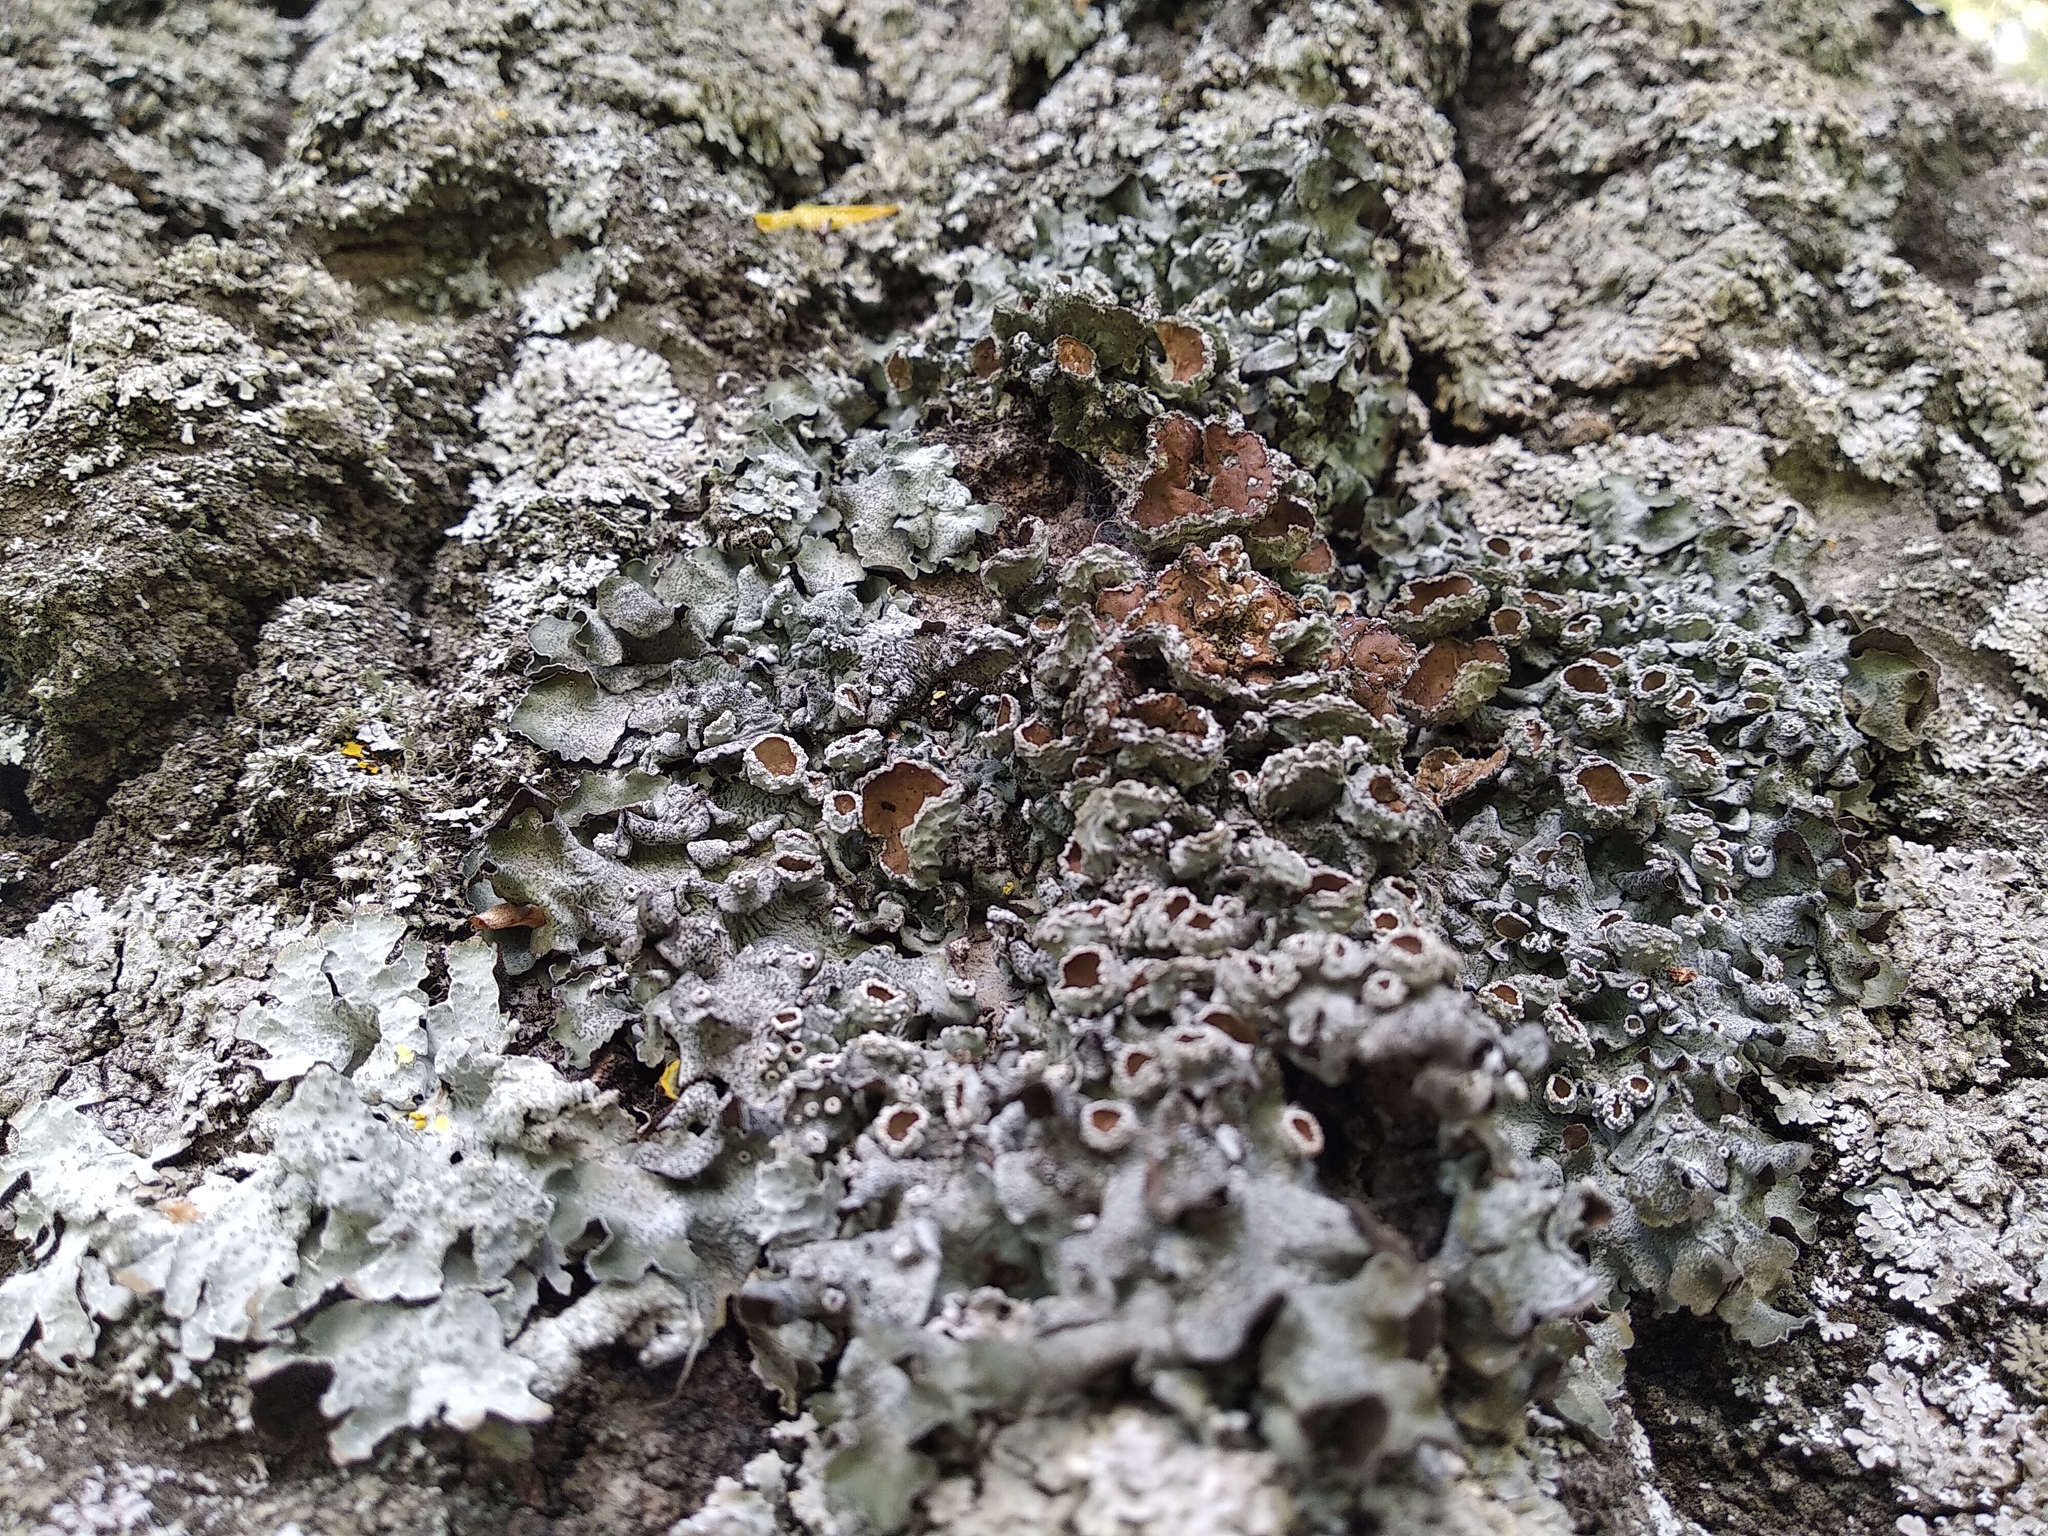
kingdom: Fungi
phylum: Ascomycota
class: Lecanoromycetes
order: Lecanorales
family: Parmeliaceae
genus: Pleurosticta
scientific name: Pleurosticta acetabulum
